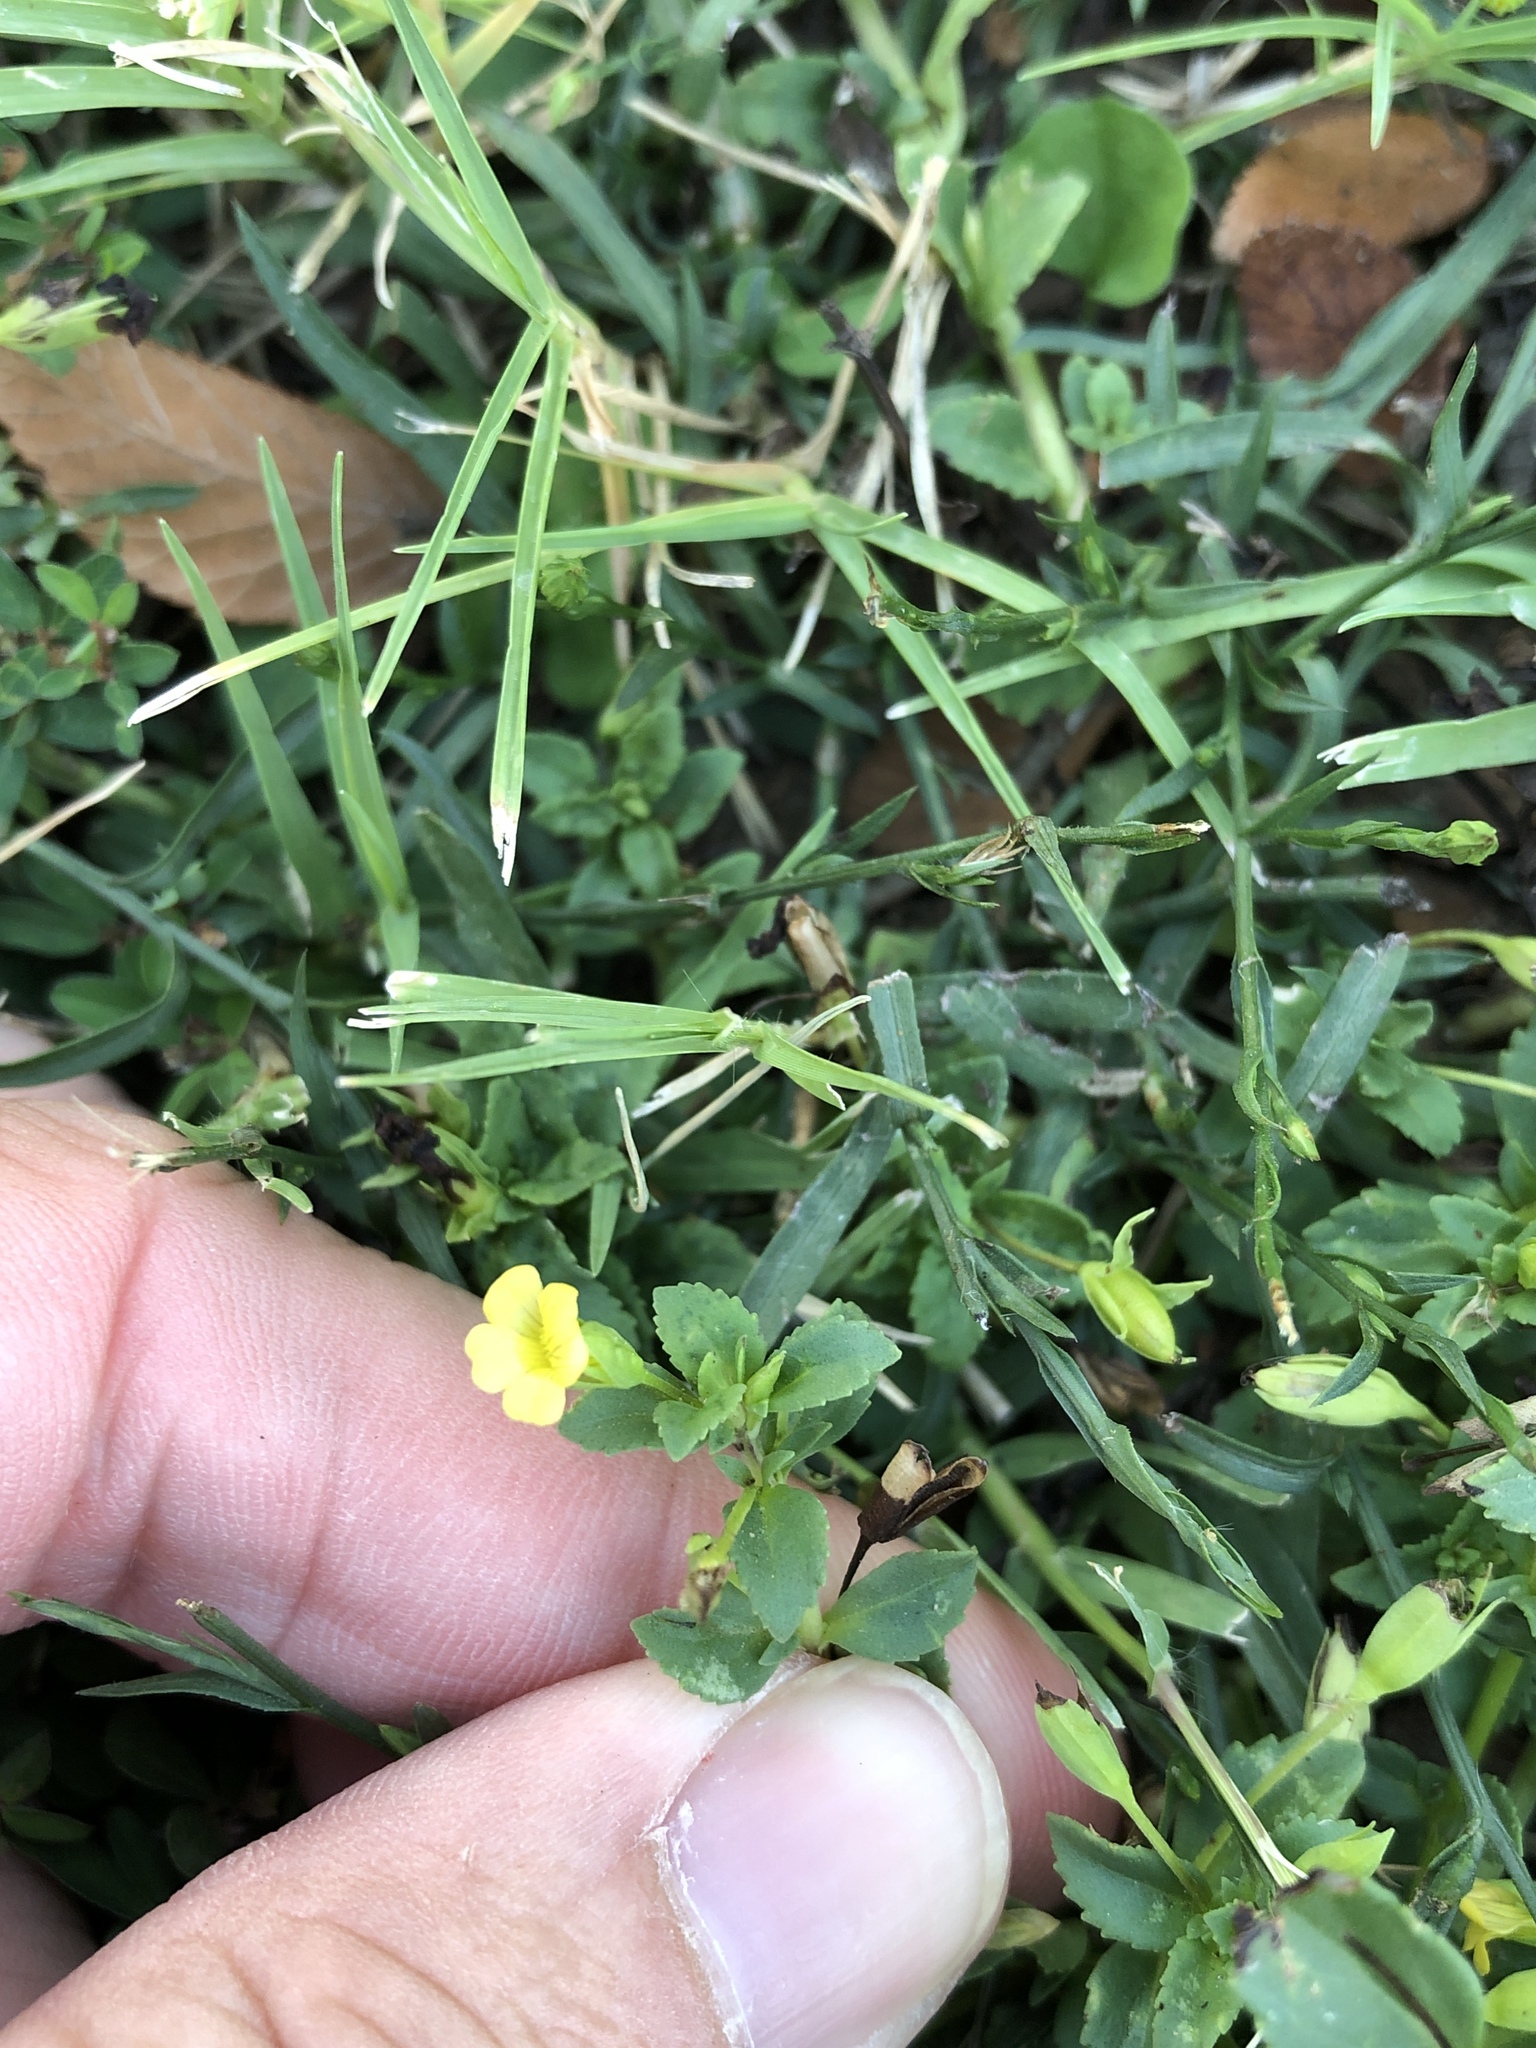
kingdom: Plantae
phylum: Tracheophyta
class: Magnoliopsida
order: Lamiales
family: Plantaginaceae
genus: Mecardonia
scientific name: Mecardonia procumbens
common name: Baby jump-up
